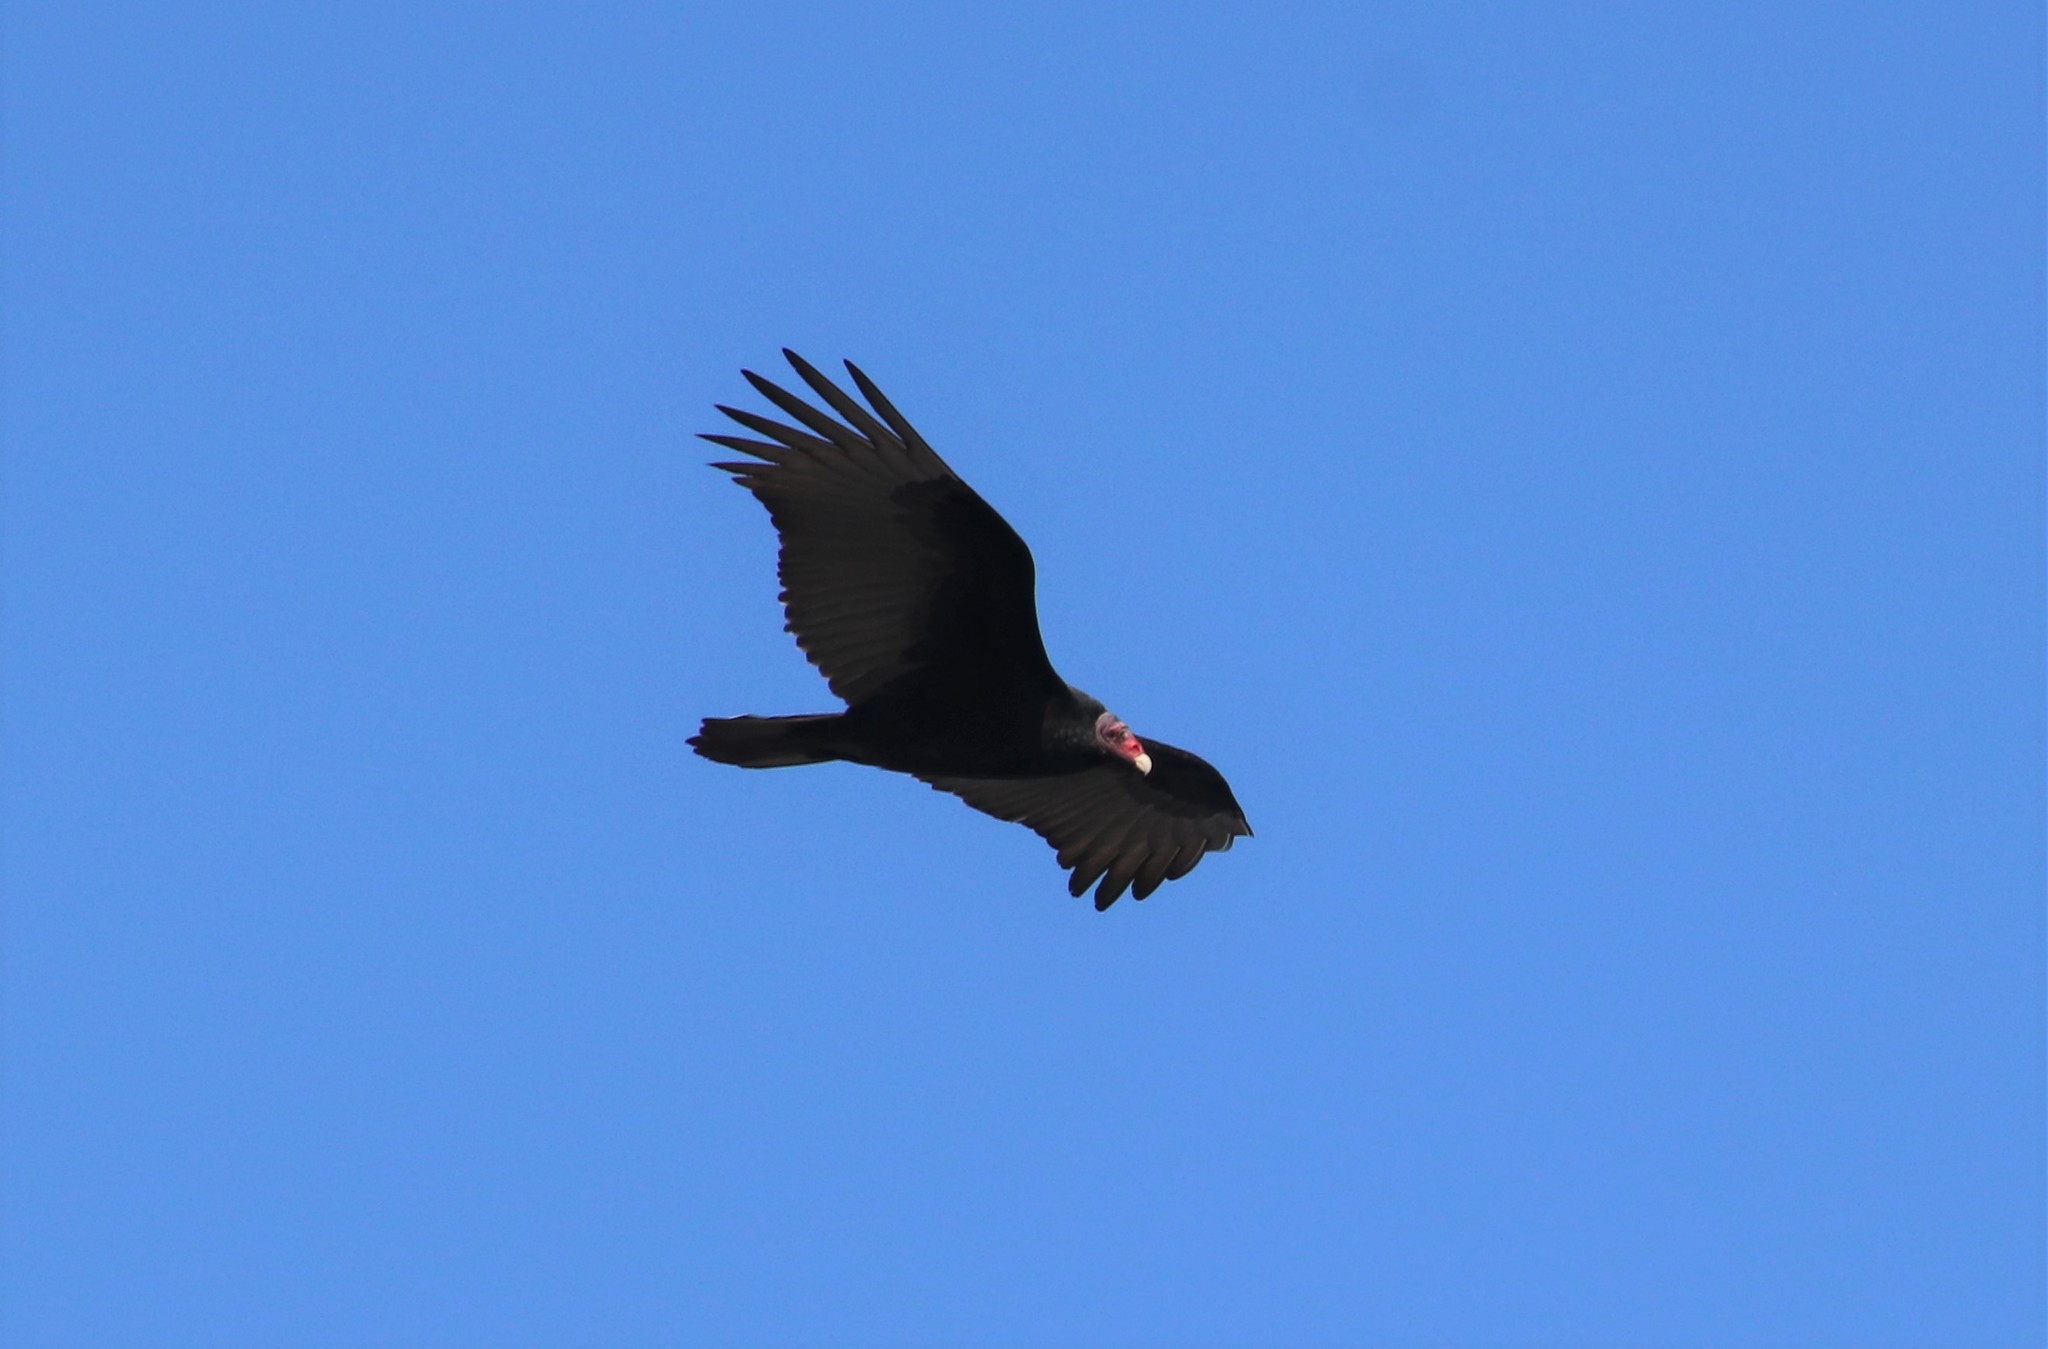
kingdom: Animalia
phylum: Chordata
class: Aves
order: Accipitriformes
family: Cathartidae
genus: Cathartes
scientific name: Cathartes aura
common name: Turkey vulture
